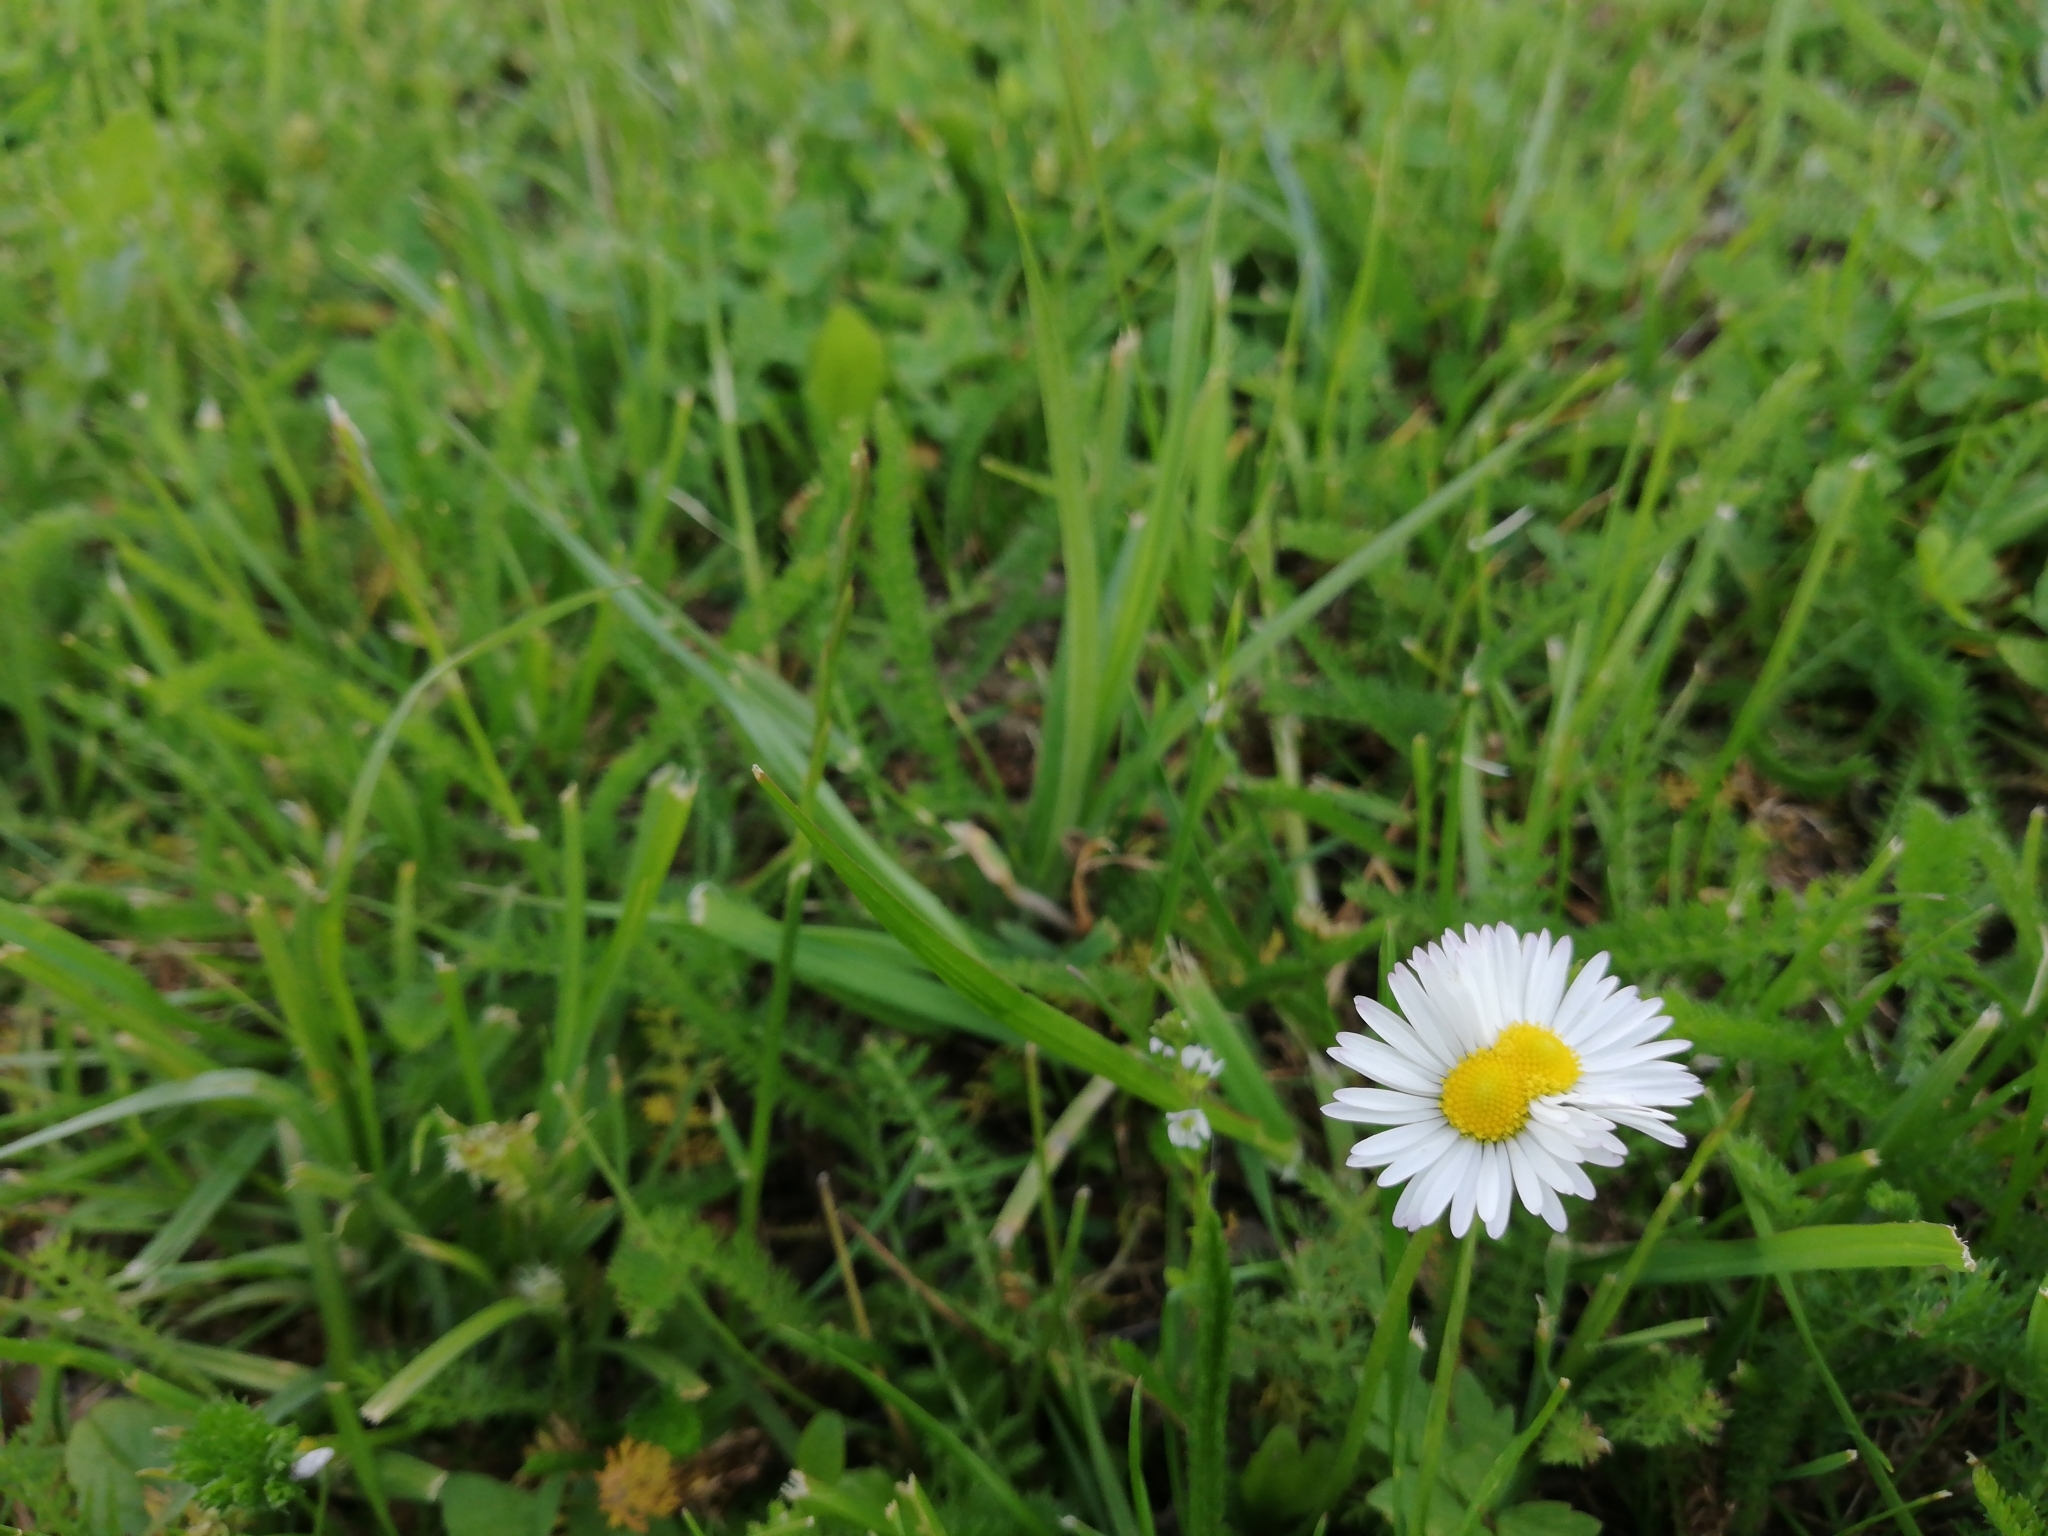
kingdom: Plantae
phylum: Tracheophyta
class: Magnoliopsida
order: Asterales
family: Asteraceae
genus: Bellis
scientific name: Bellis perennis
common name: Lawndaisy
